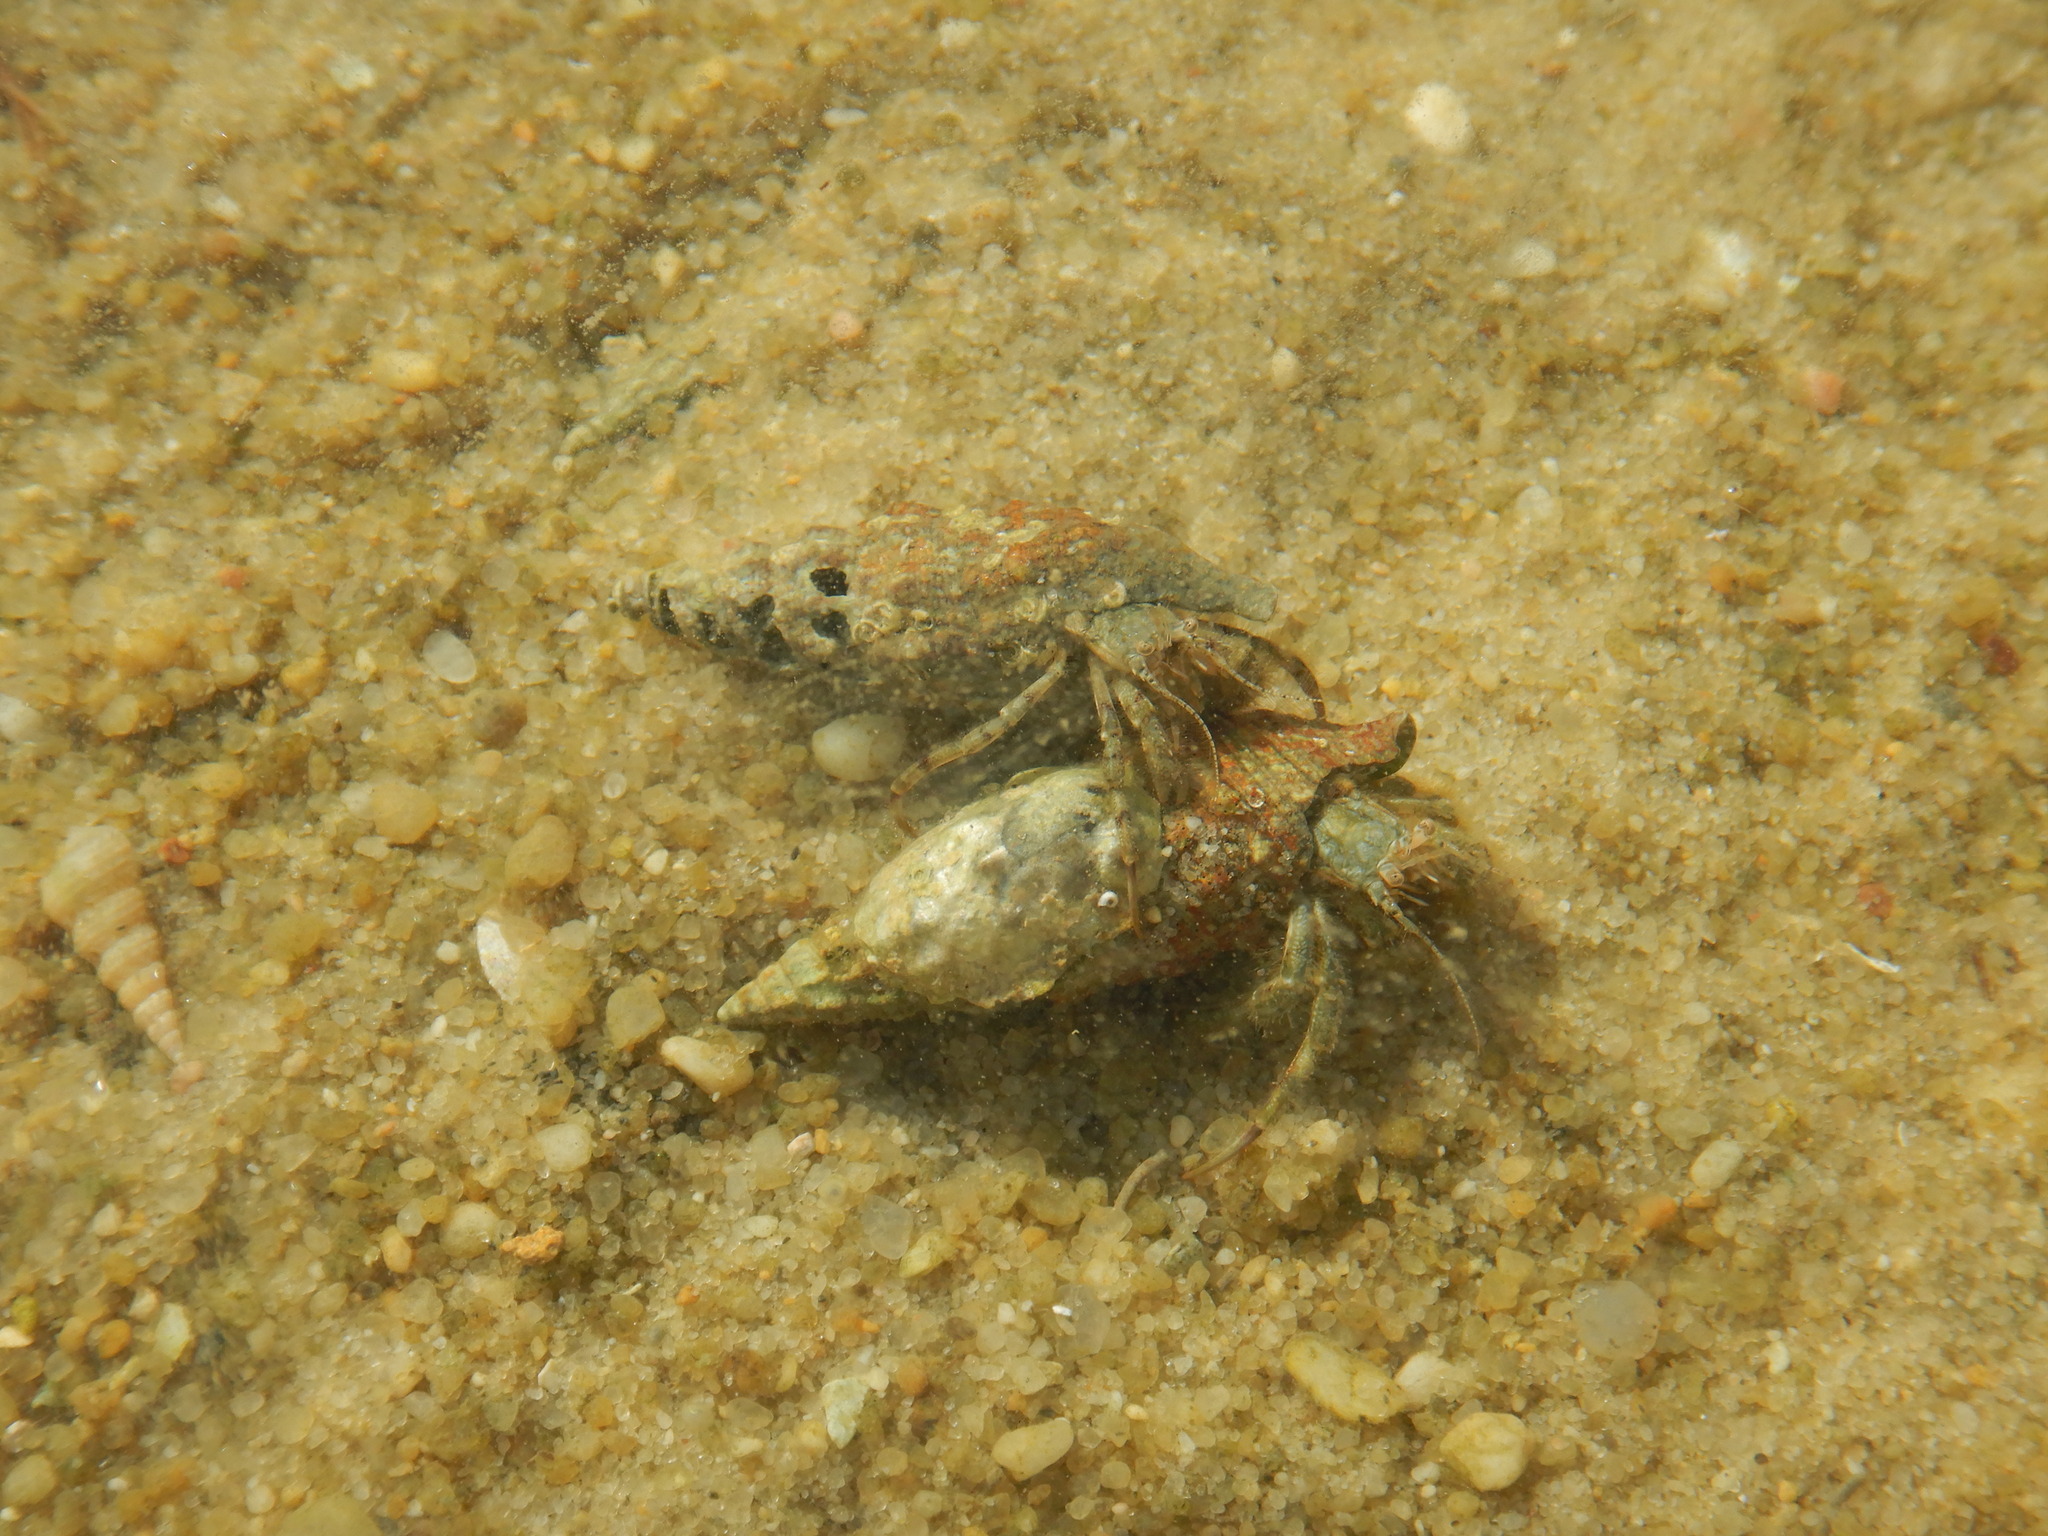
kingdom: Animalia
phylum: Arthropoda
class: Malacostraca
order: Decapoda
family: Diogenidae
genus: Diogenes
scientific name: Diogenes pugilator
